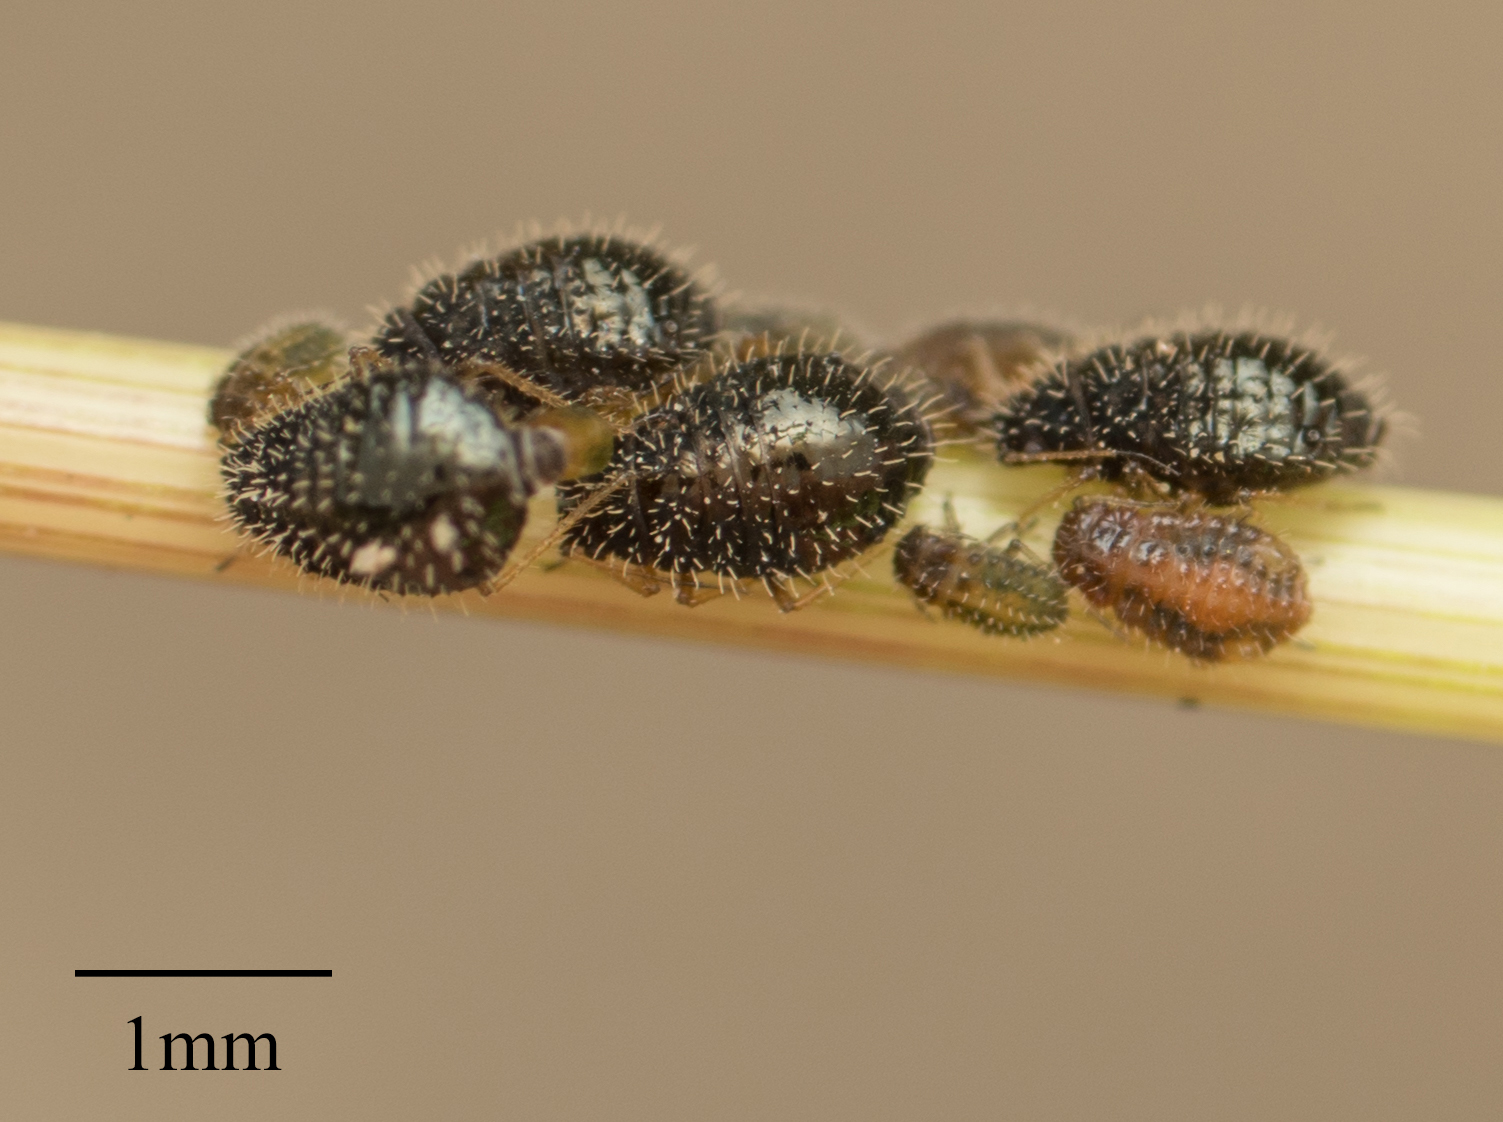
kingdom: Animalia
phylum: Arthropoda
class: Insecta
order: Hemiptera
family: Aphididae
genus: Sipha
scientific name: Sipha maydis
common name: Aphid
